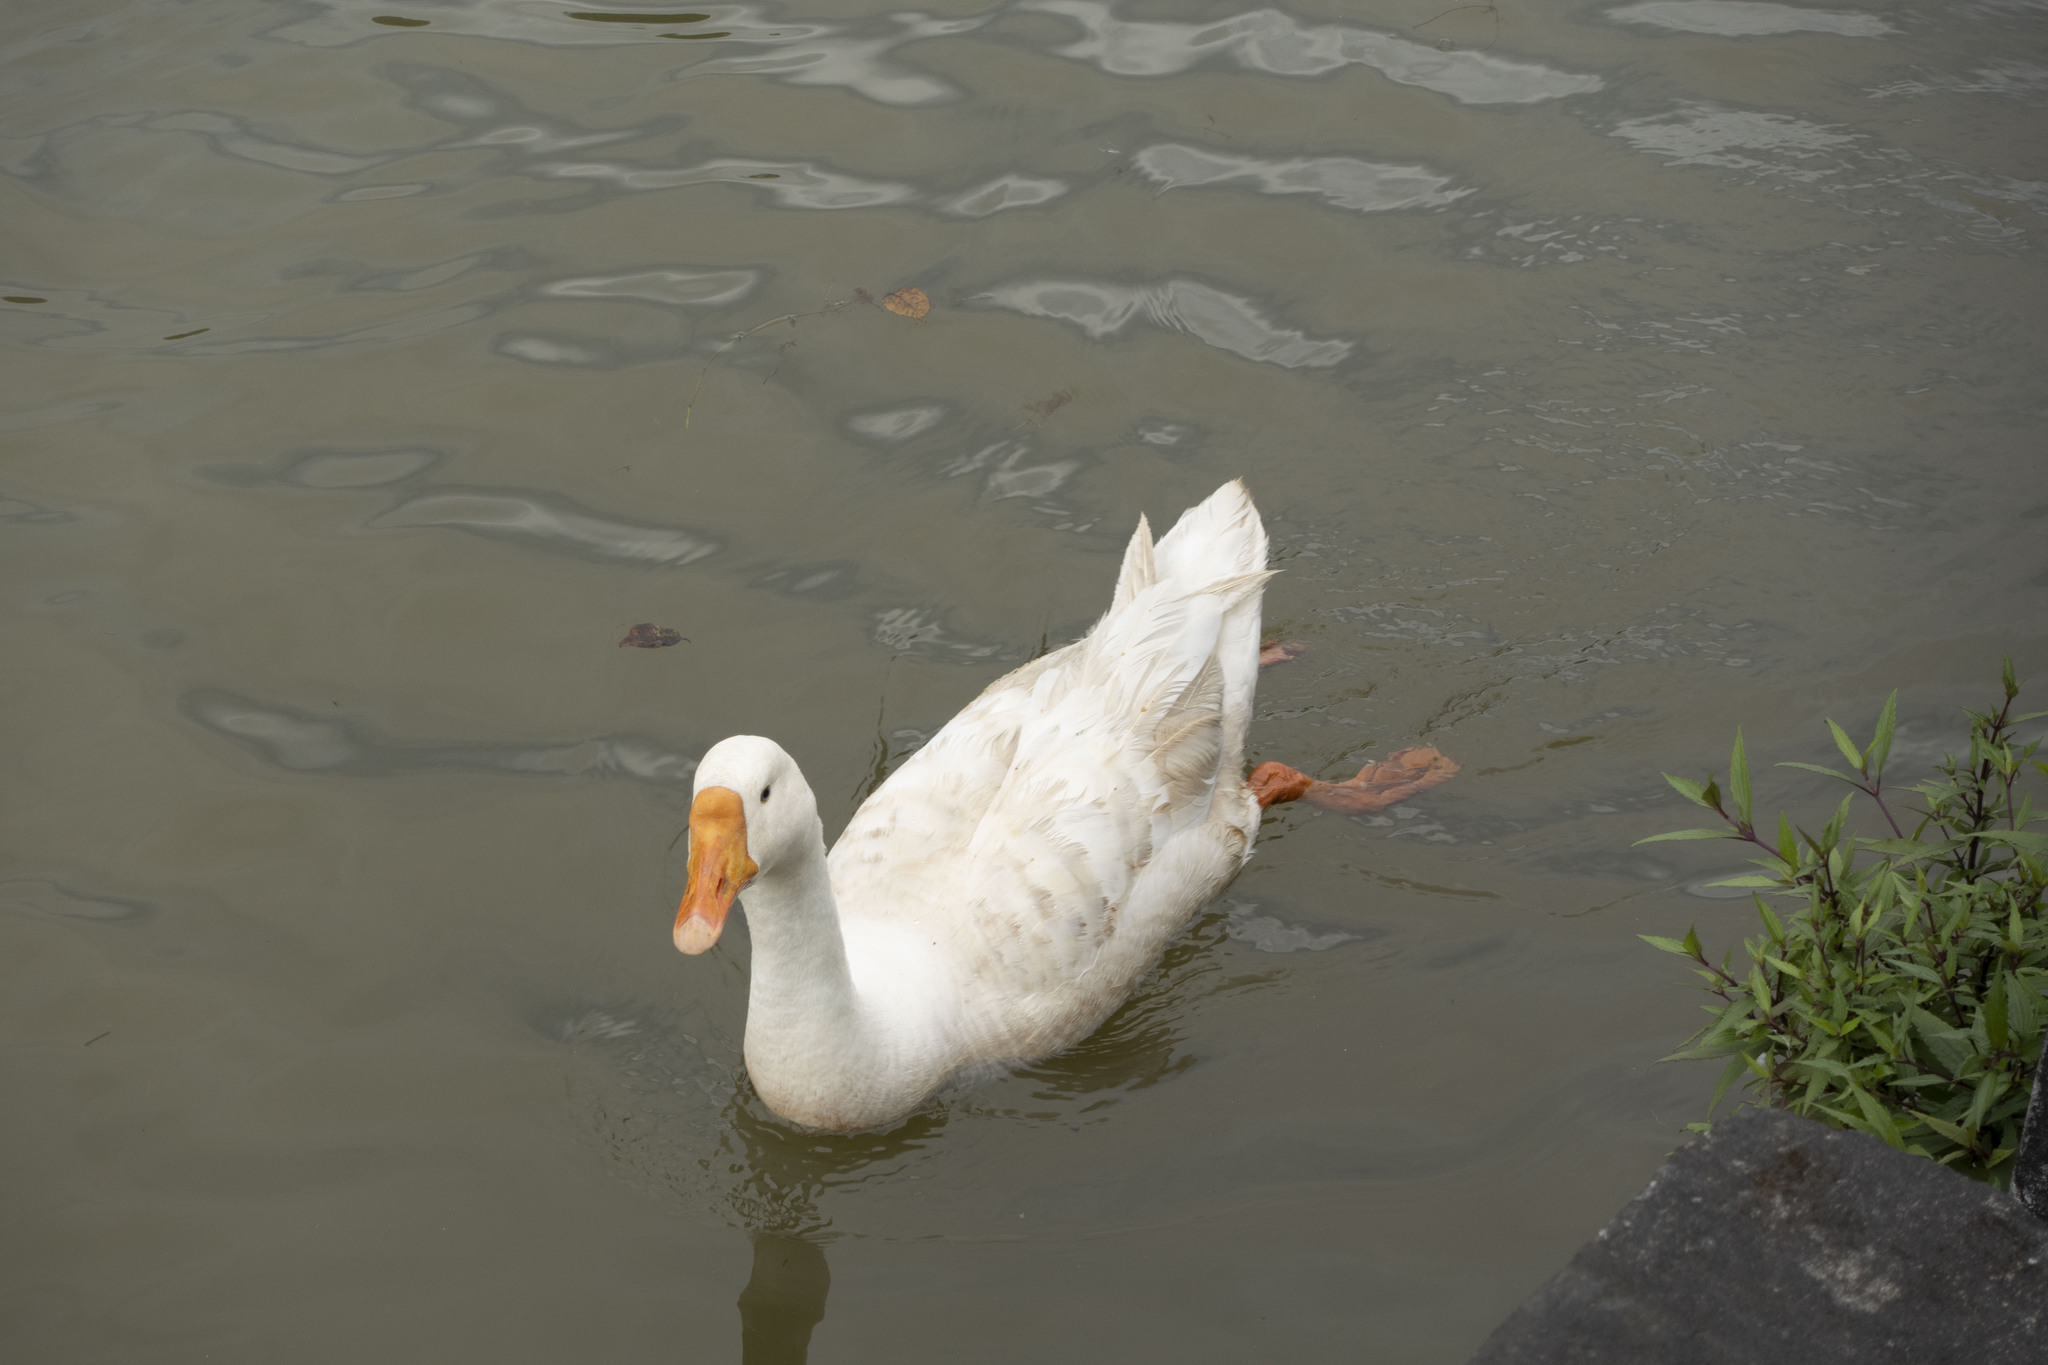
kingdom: Animalia
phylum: Chordata
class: Aves
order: Anseriformes
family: Anatidae
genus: Anser
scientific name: Anser cygnoides
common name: Swan goose
